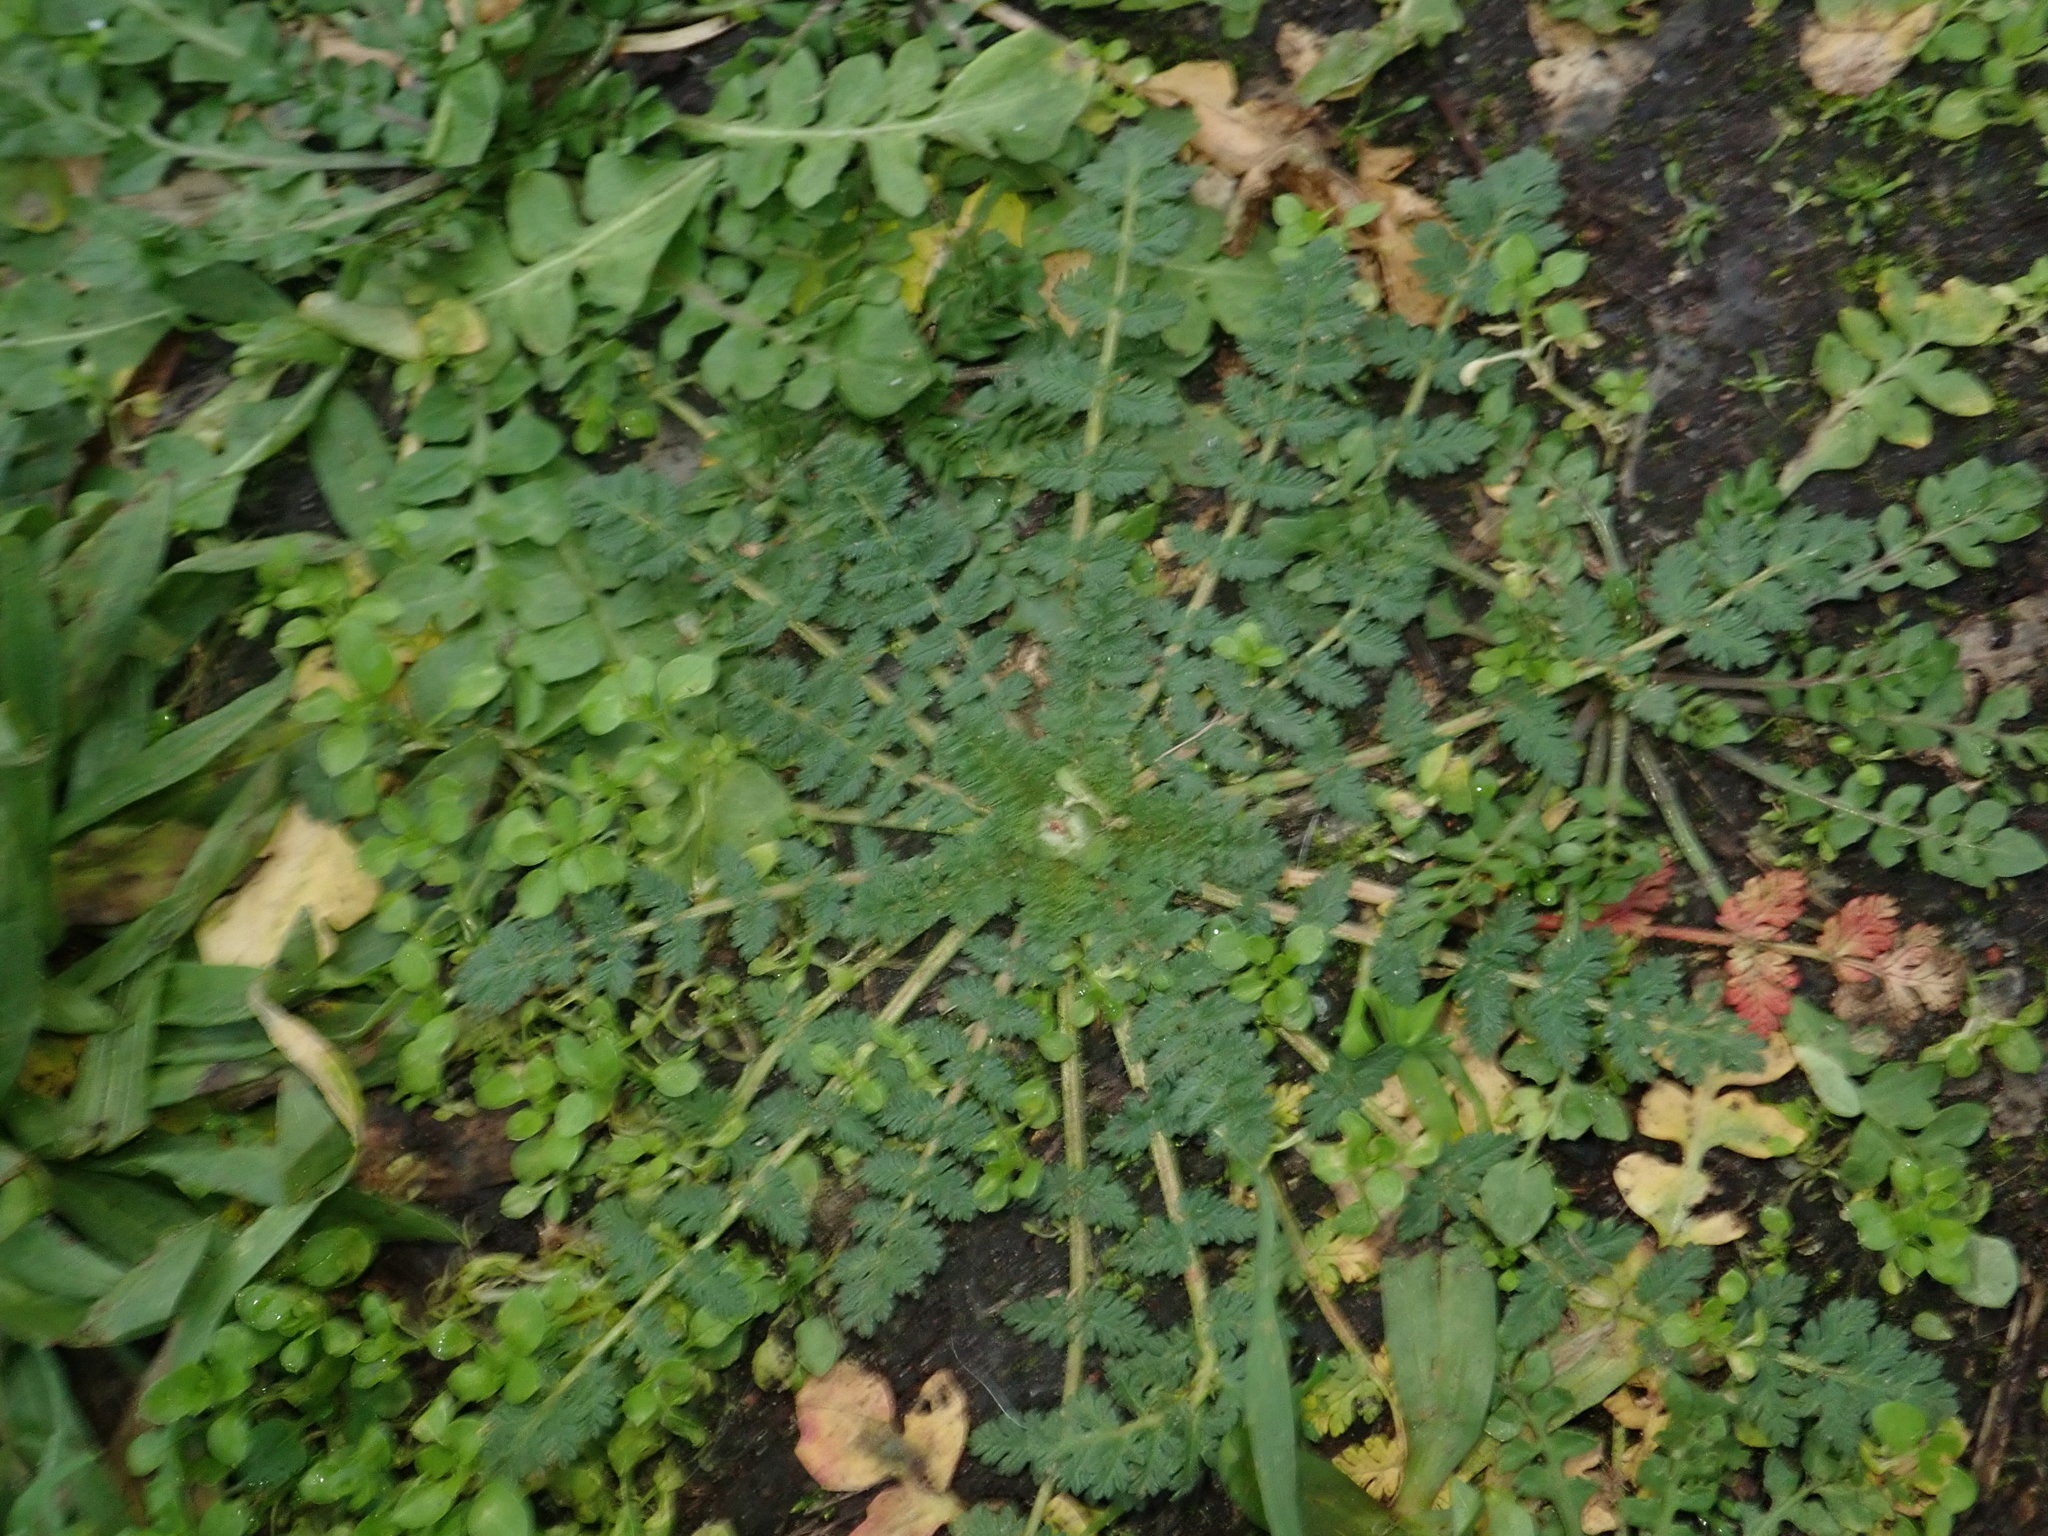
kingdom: Plantae
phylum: Tracheophyta
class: Magnoliopsida
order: Geraniales
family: Geraniaceae
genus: Erodium
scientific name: Erodium cicutarium
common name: Common stork's-bill
